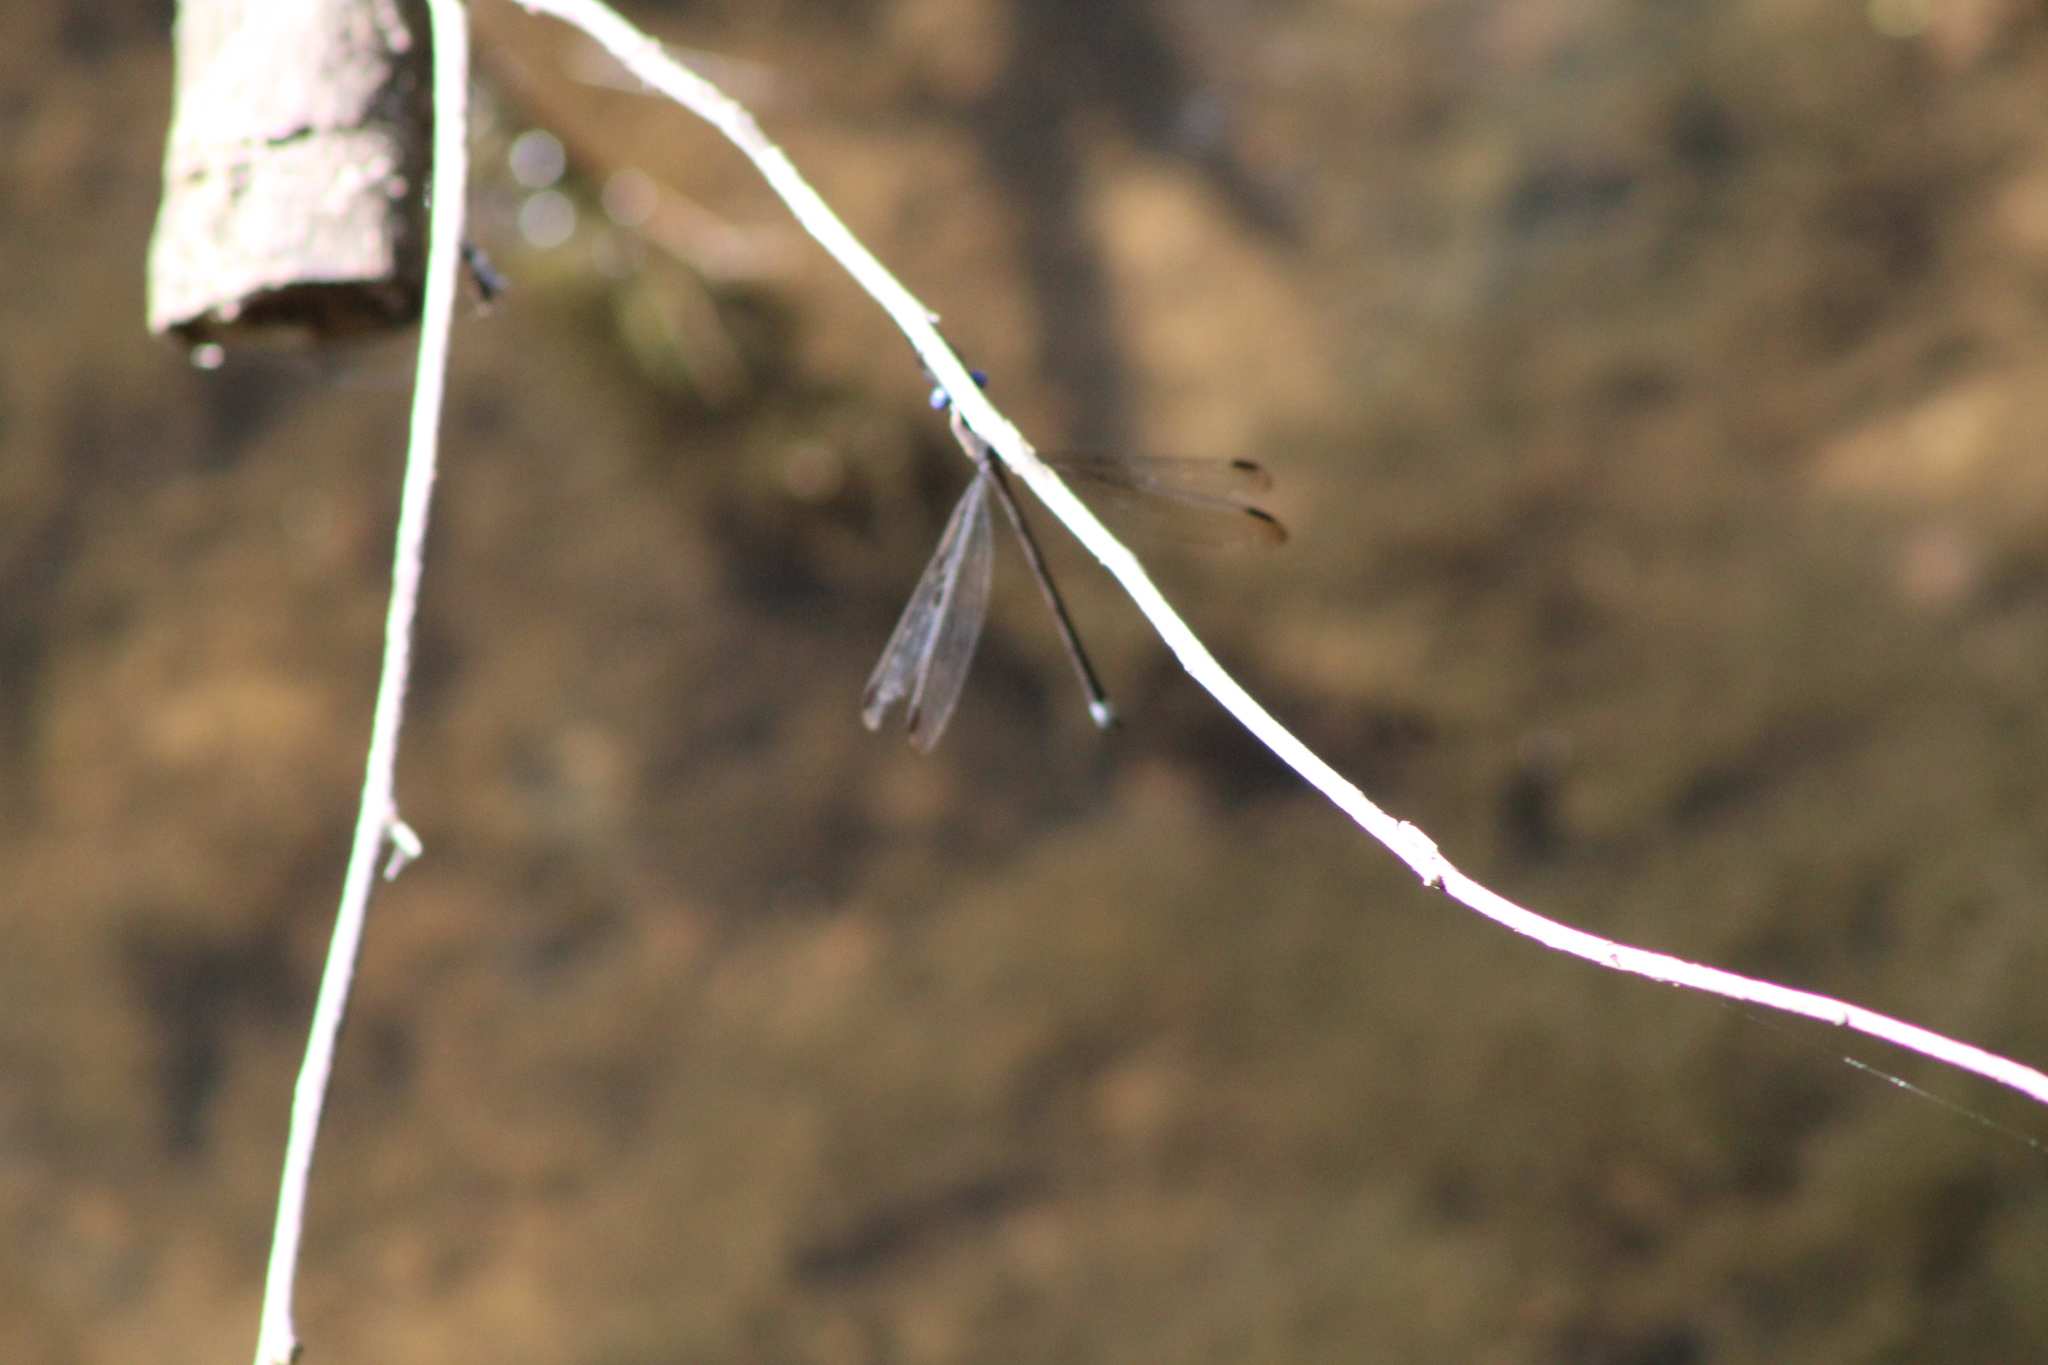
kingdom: Animalia
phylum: Arthropoda
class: Insecta
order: Odonata
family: Lestidae
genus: Archilestes
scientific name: Archilestes grandis
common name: Great spreadwing
